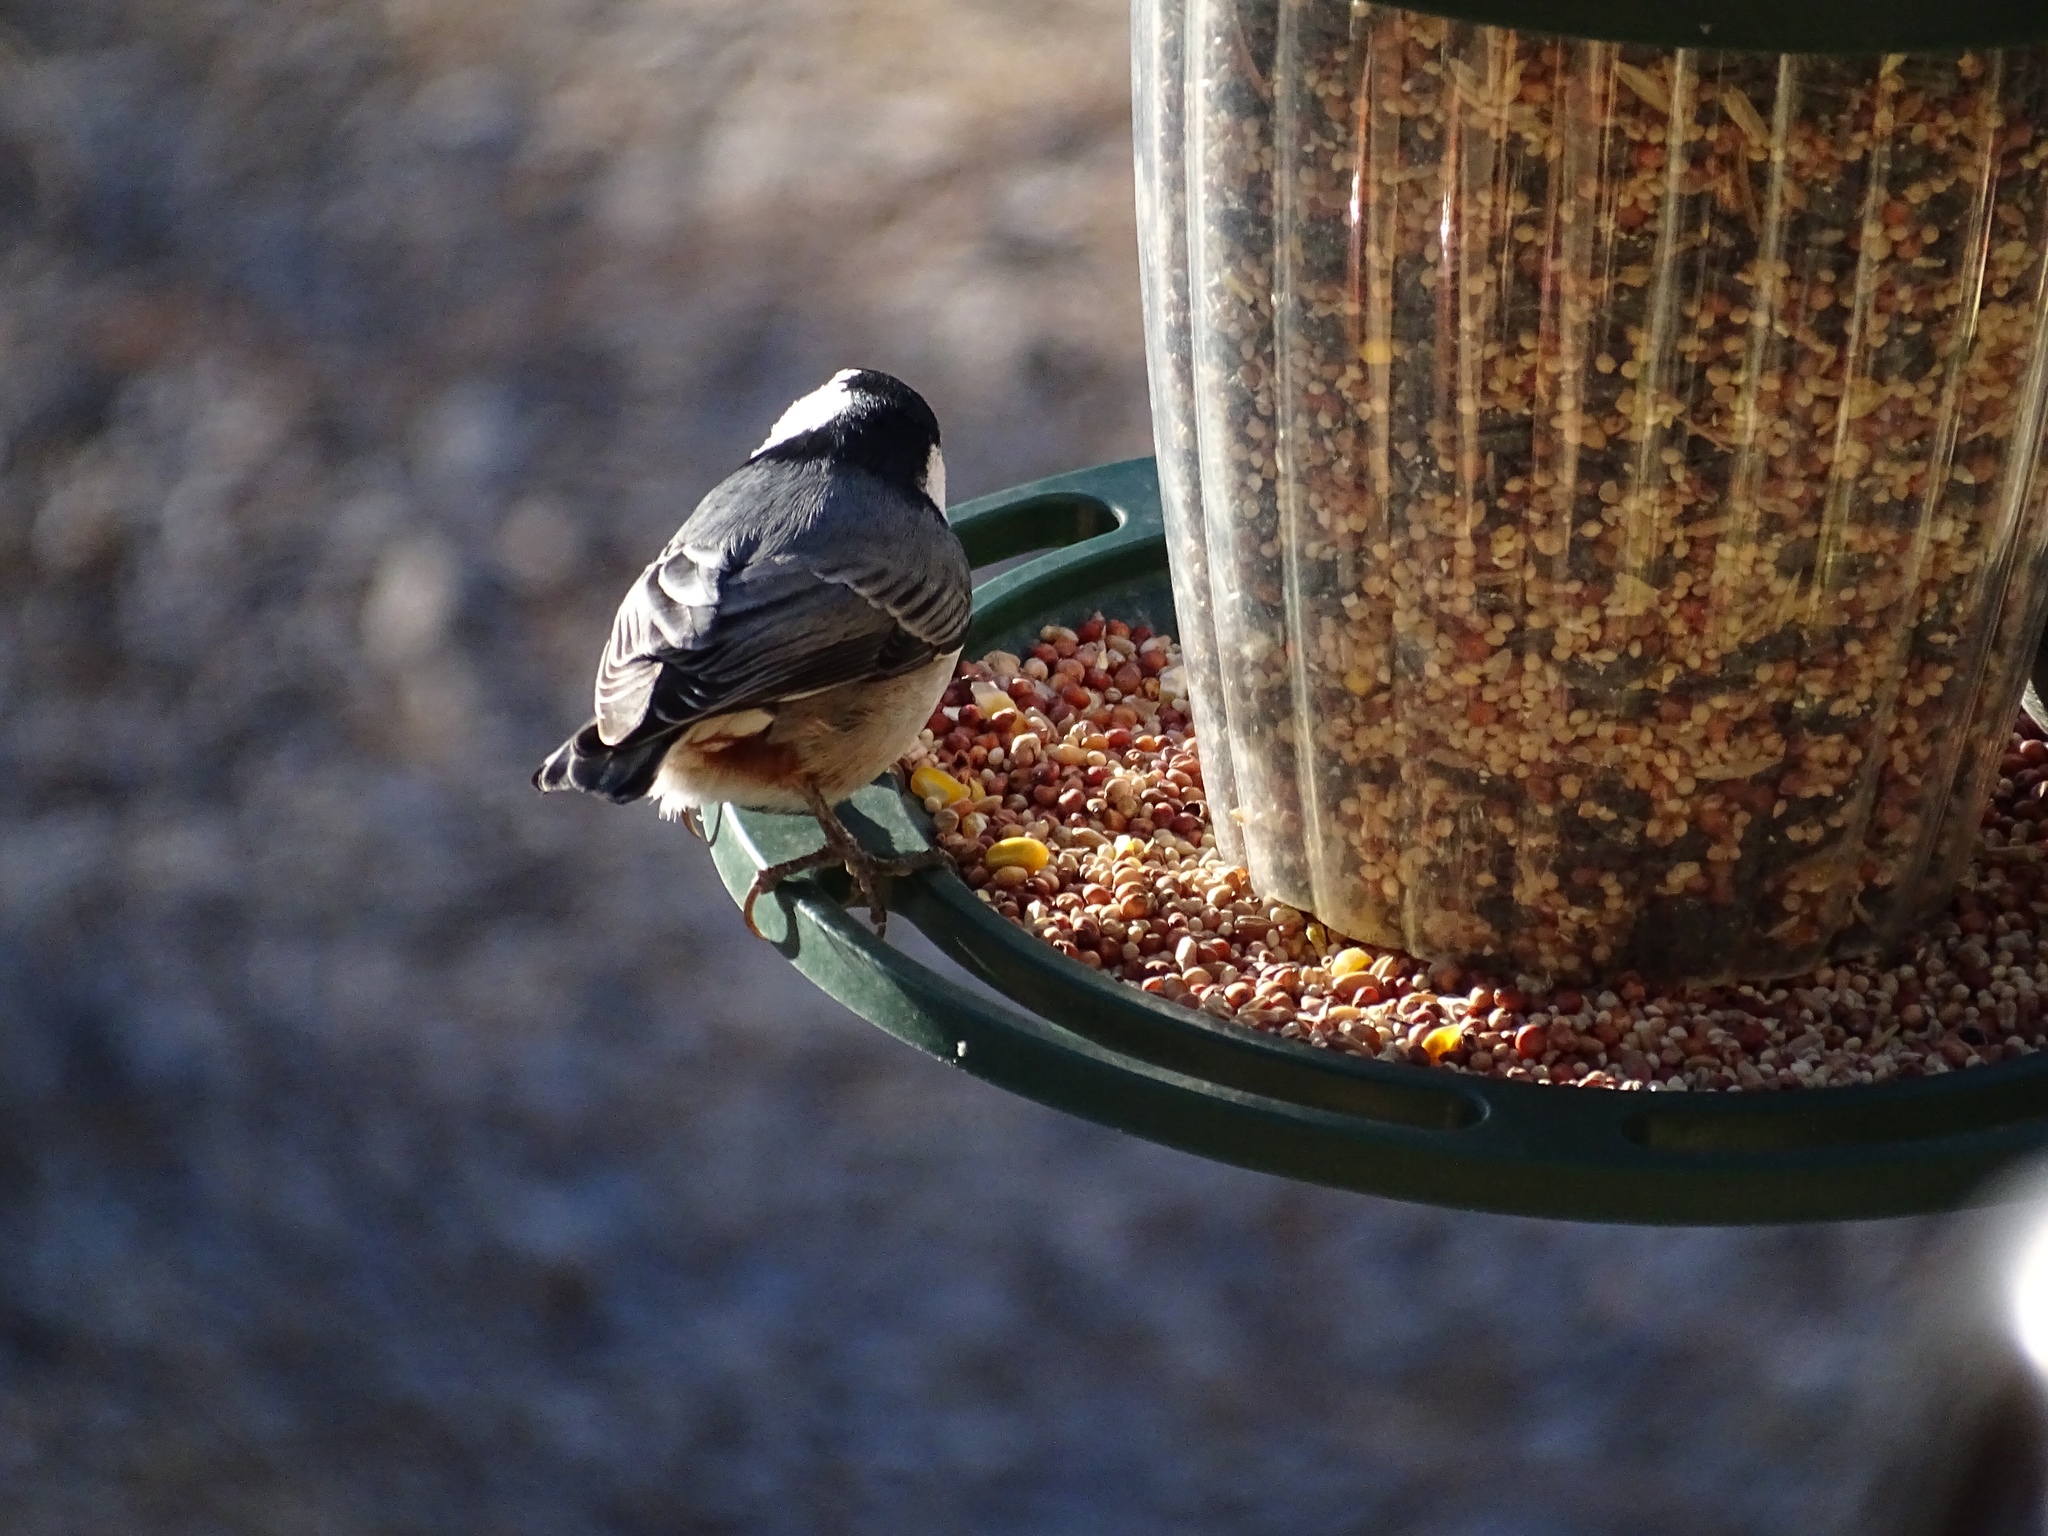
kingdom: Animalia
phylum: Chordata
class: Aves
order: Passeriformes
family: Sittidae
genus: Sitta
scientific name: Sitta carolinensis
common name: White-breasted nuthatch
